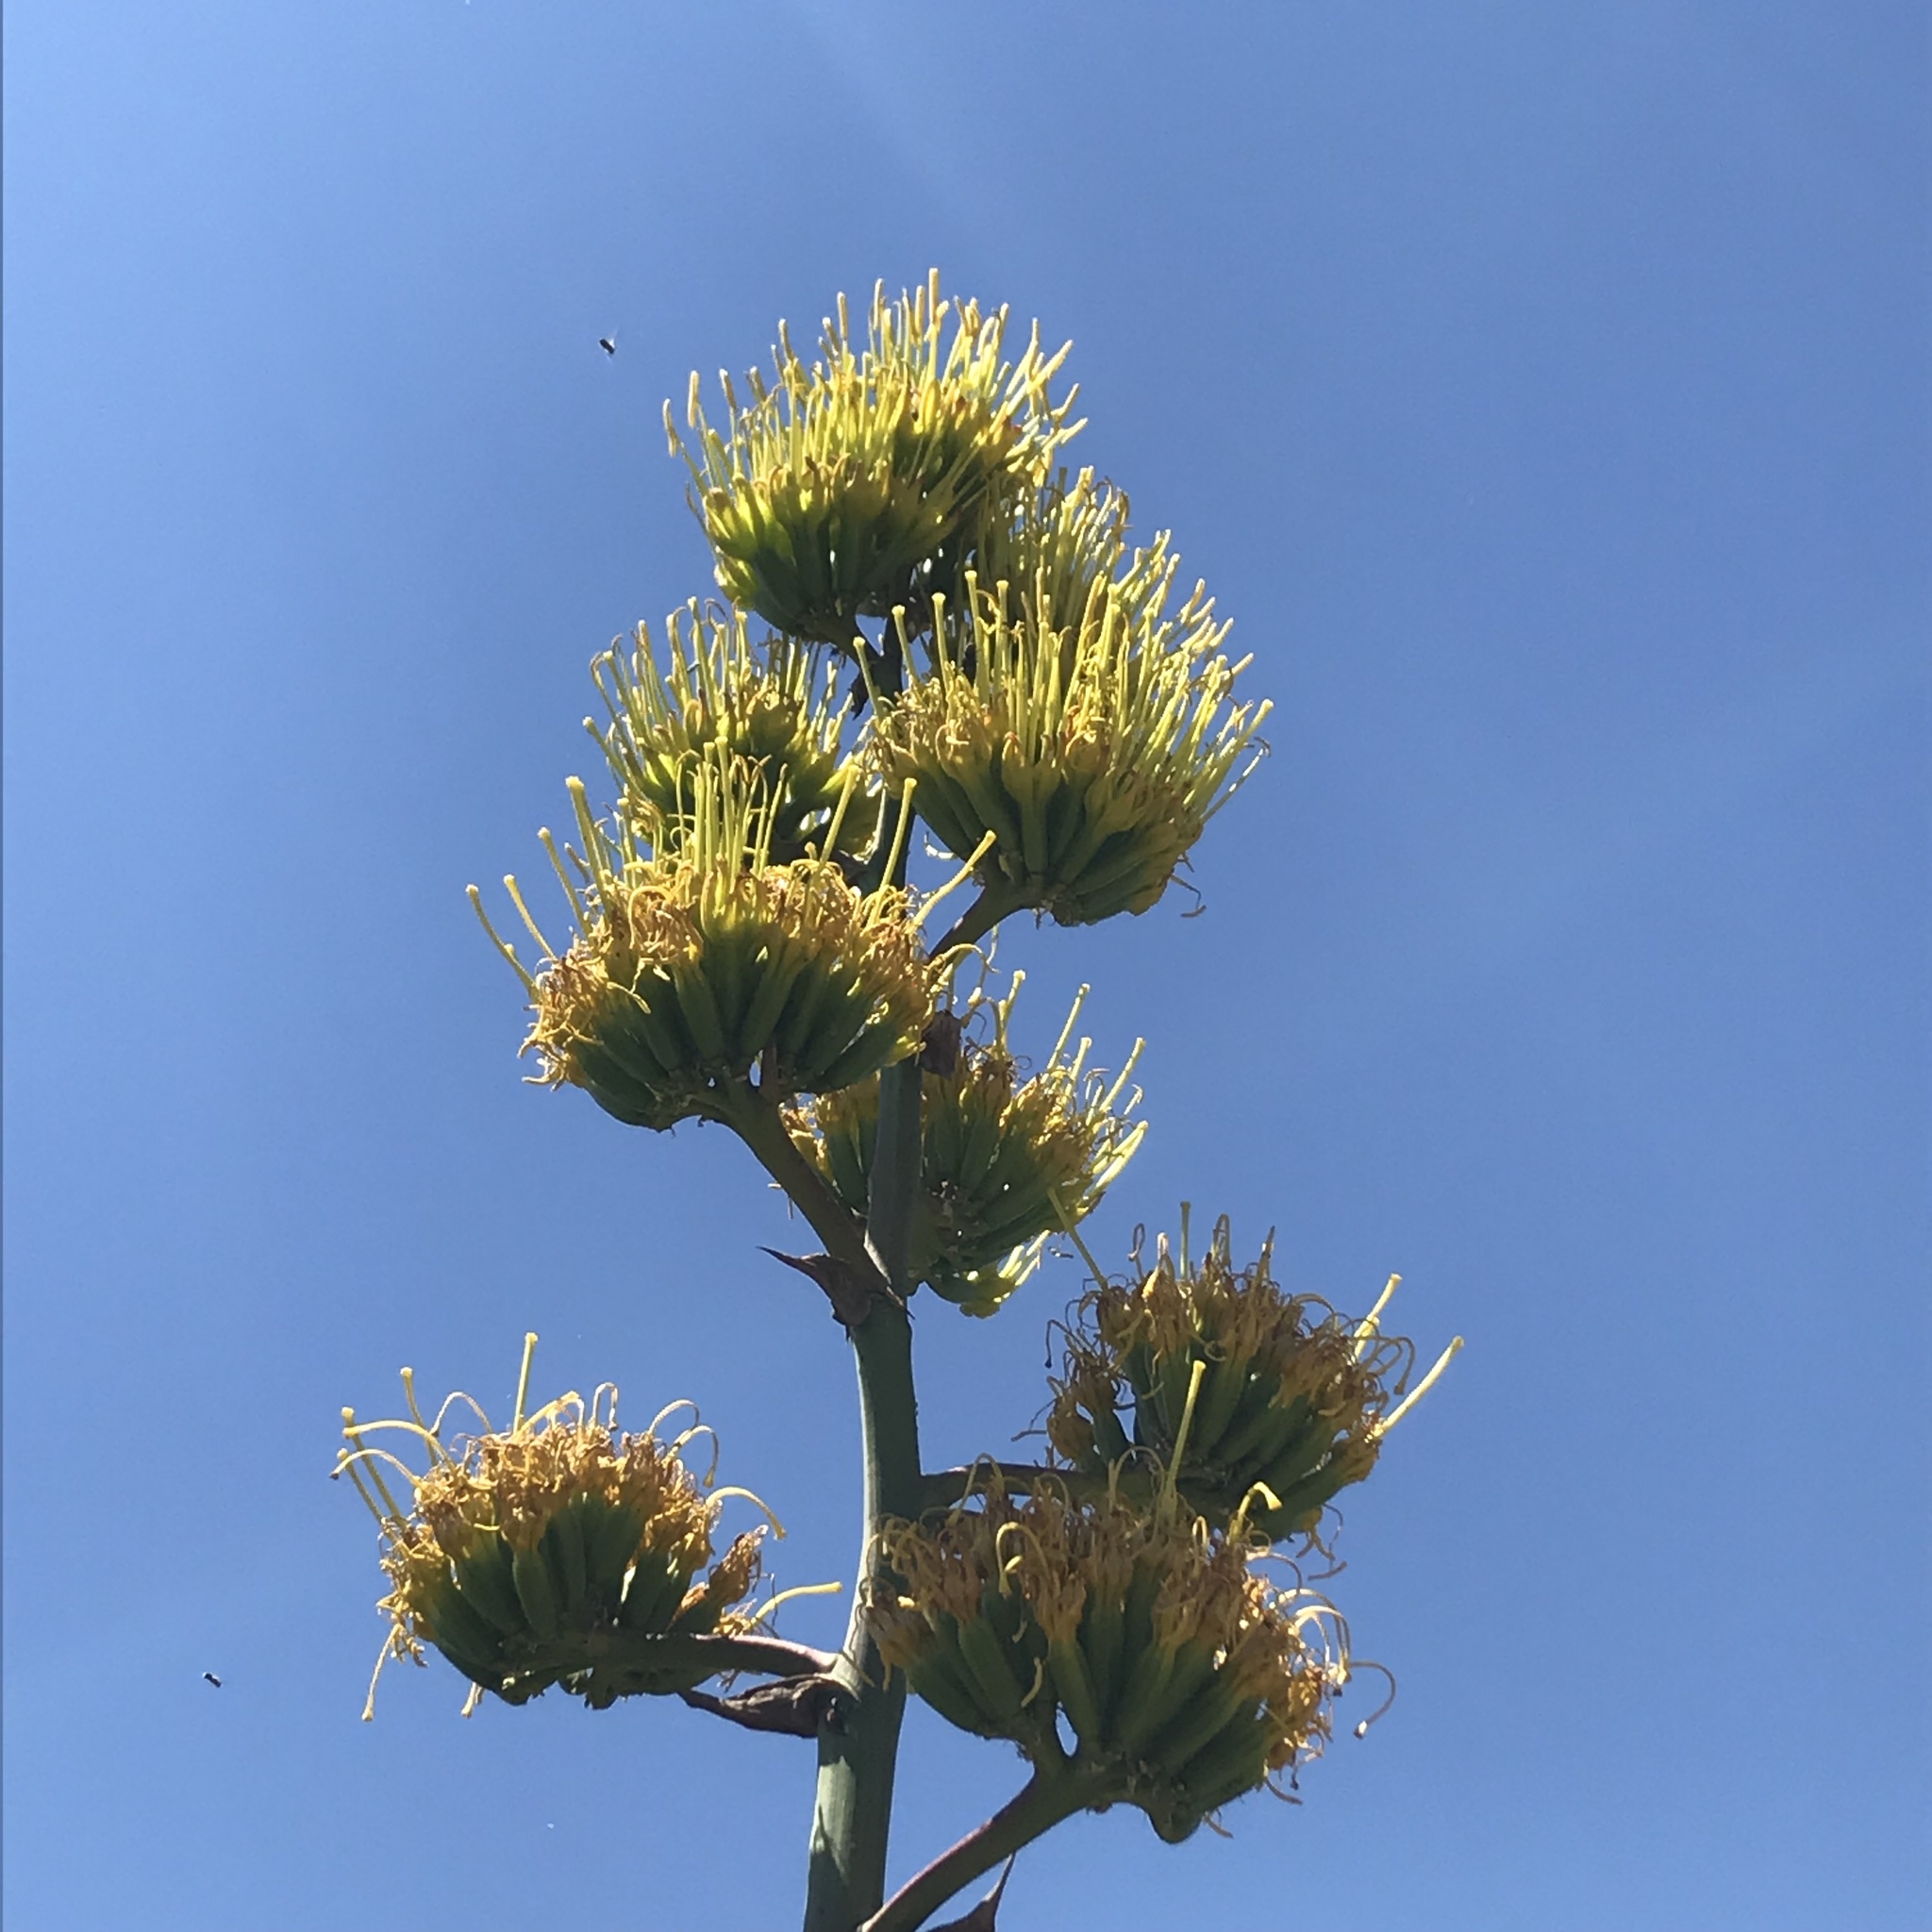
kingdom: Plantae
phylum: Tracheophyta
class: Liliopsida
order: Asparagales
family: Asparagaceae
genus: Agave
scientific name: Agave parryi
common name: Parry's agave
